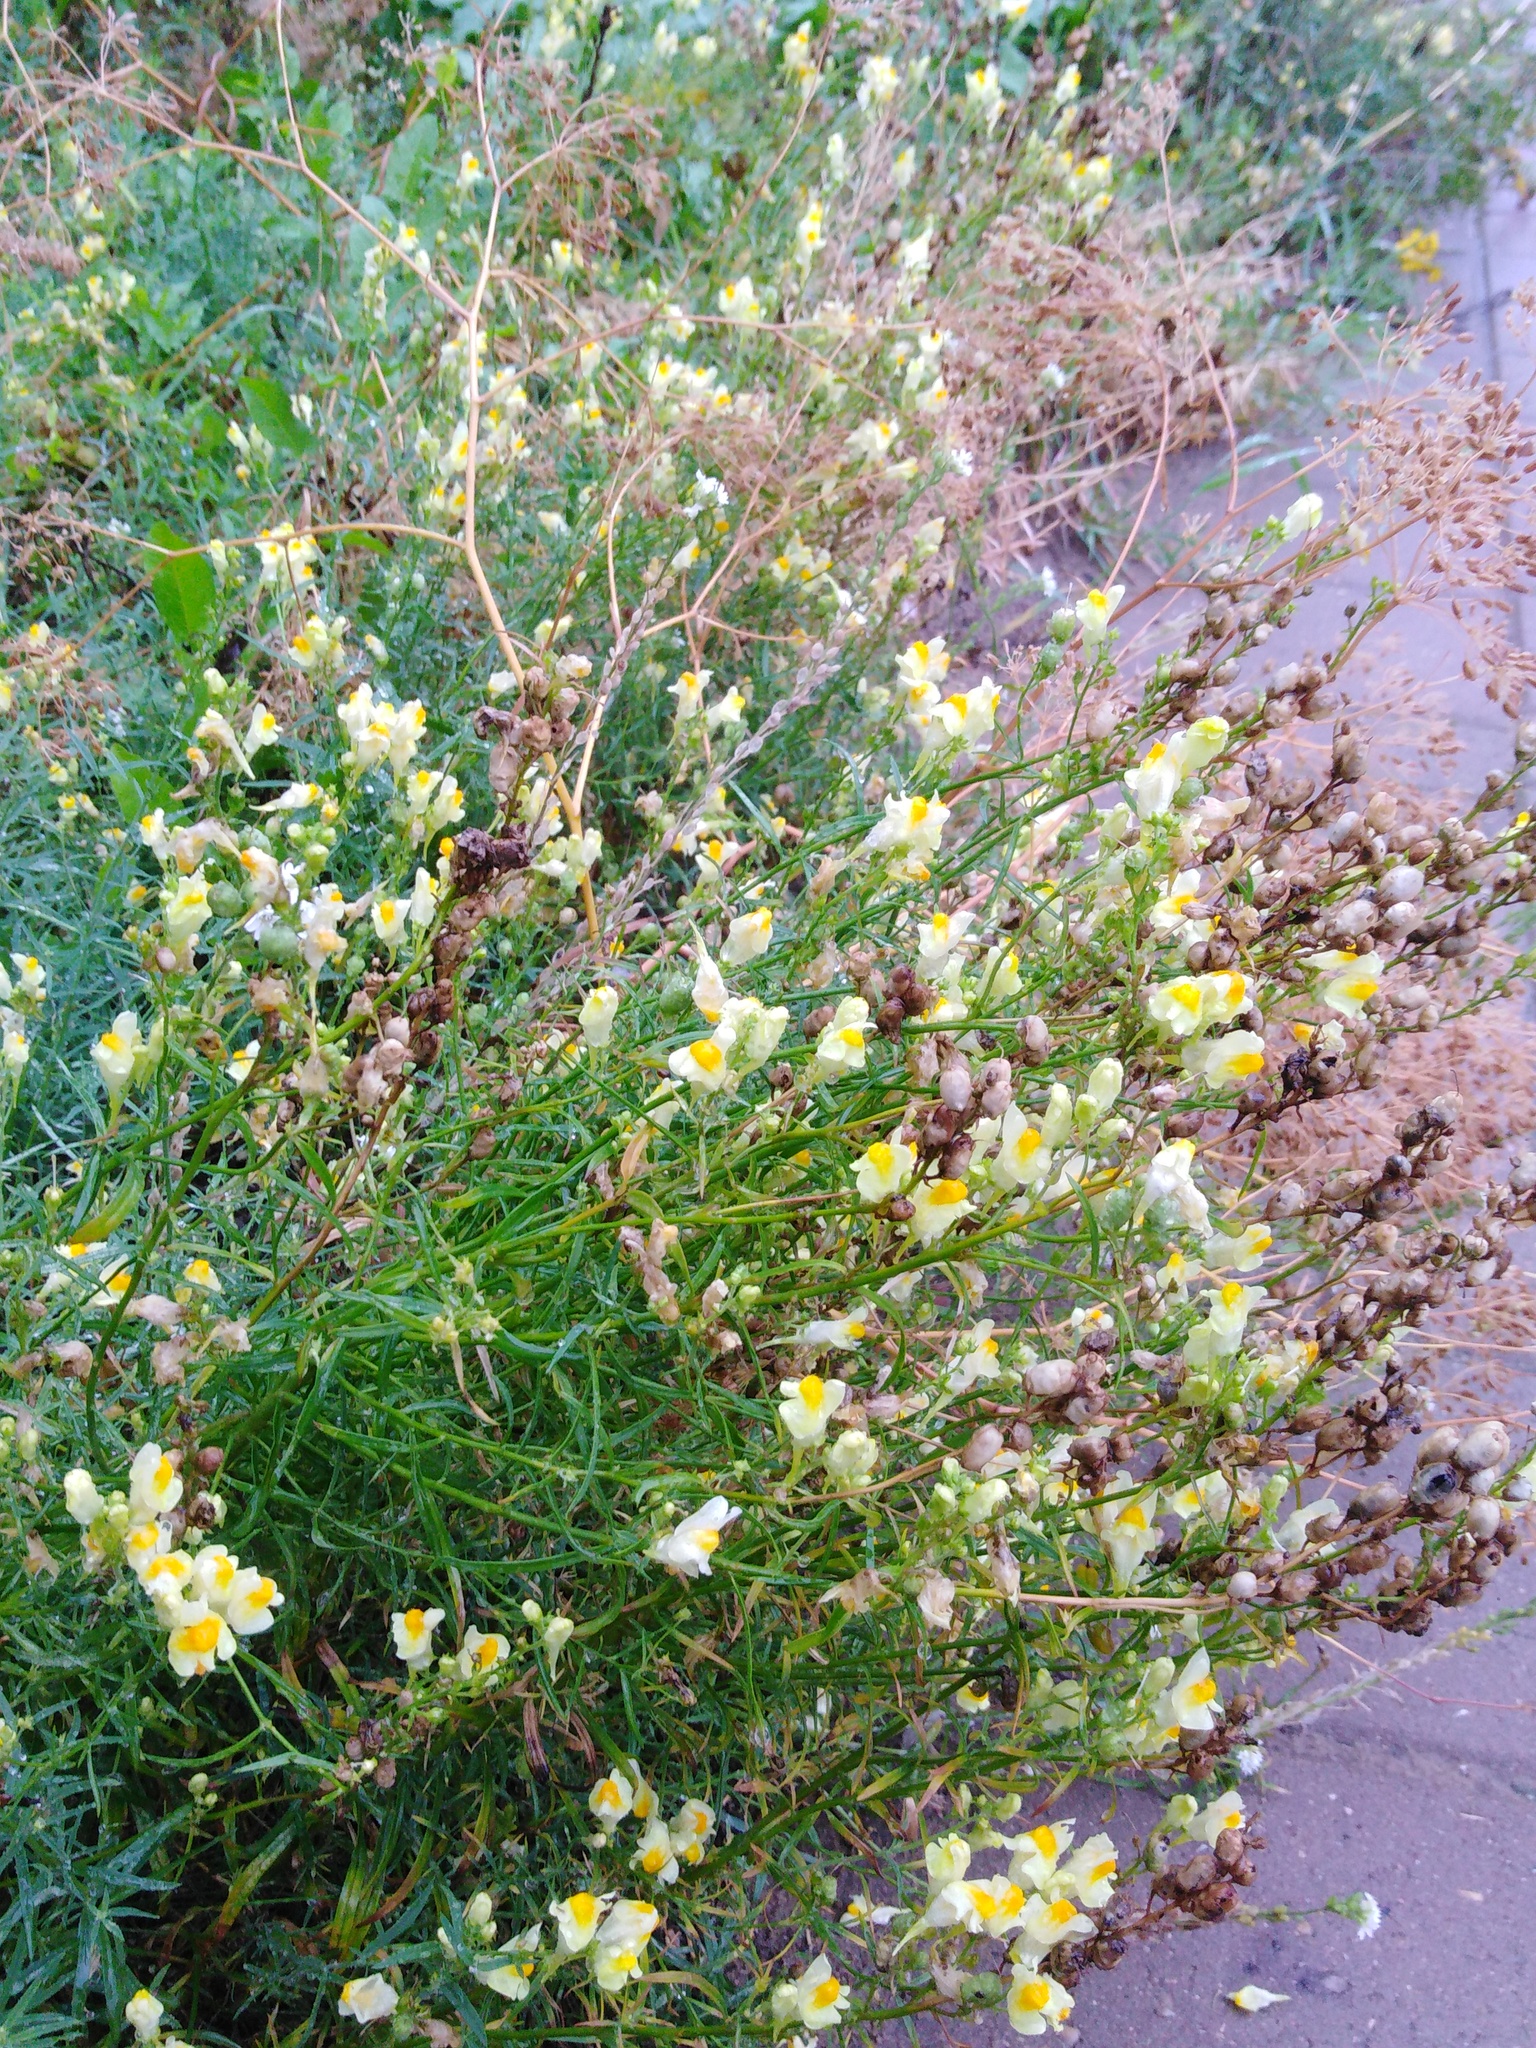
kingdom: Plantae
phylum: Tracheophyta
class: Magnoliopsida
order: Lamiales
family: Plantaginaceae
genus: Linaria
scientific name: Linaria vulgaris
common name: Butter and eggs
